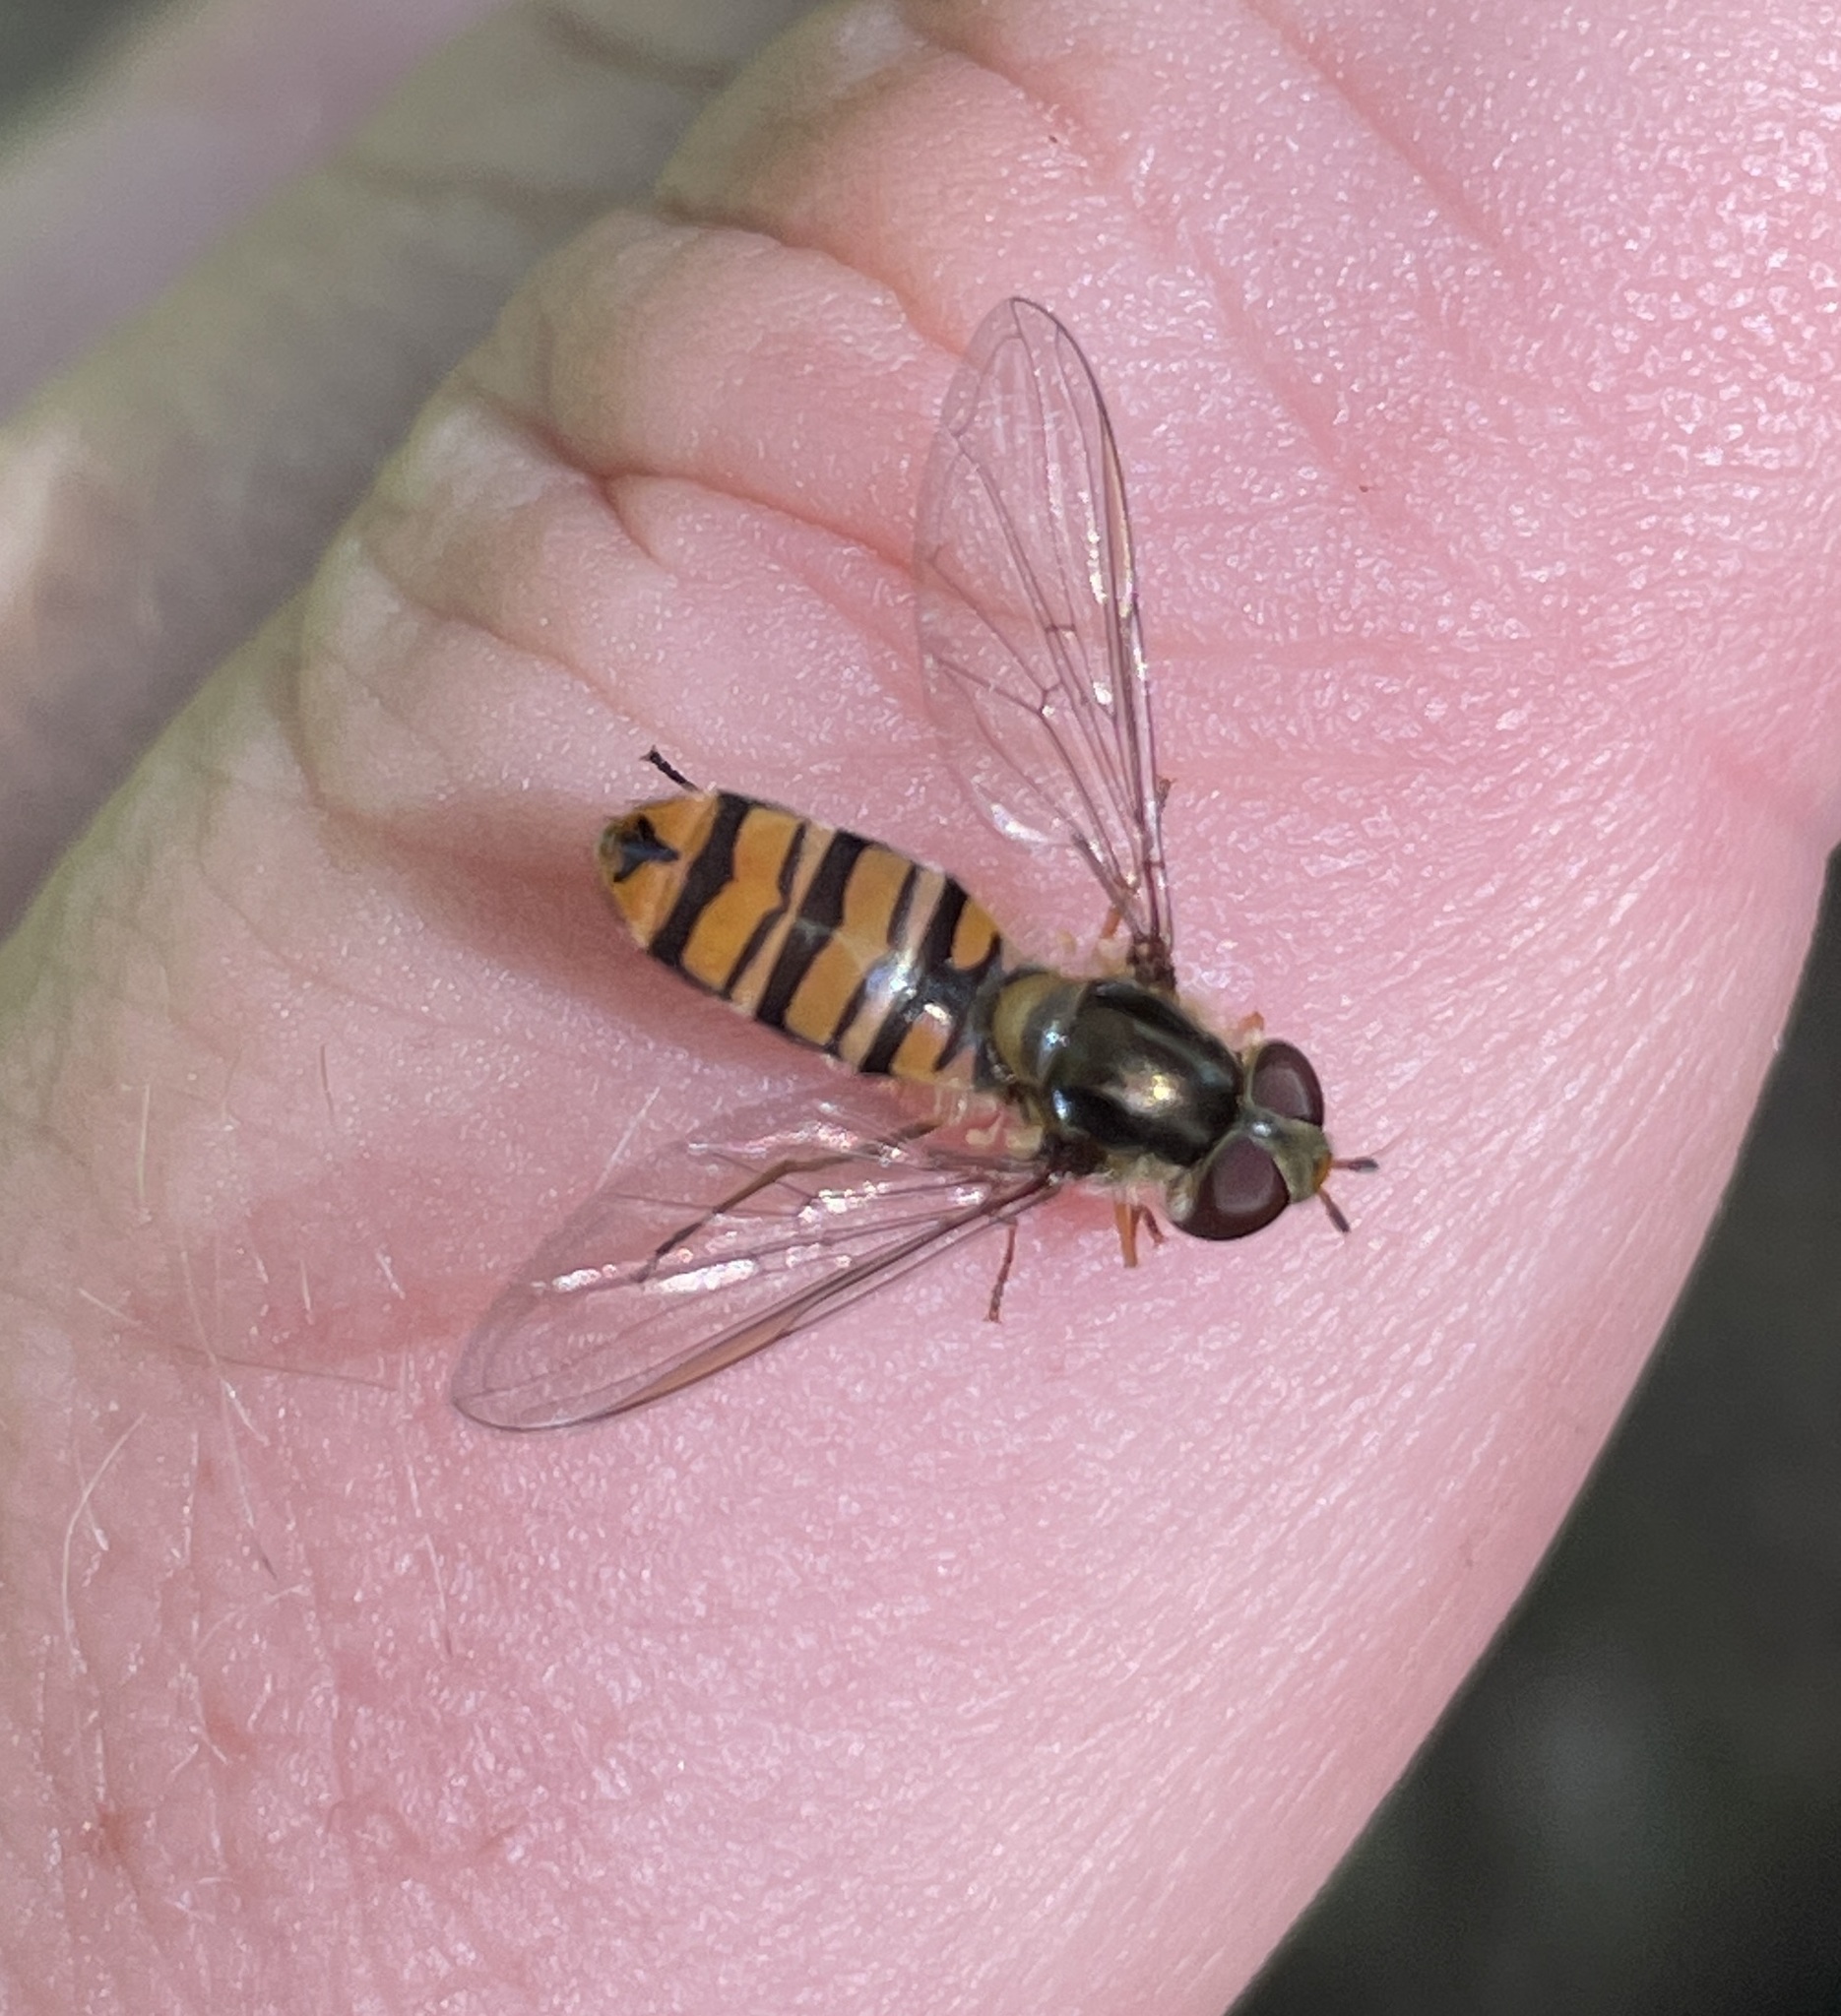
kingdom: Animalia
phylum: Arthropoda
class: Insecta
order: Diptera
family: Syrphidae
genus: Episyrphus
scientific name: Episyrphus balteatus
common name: Marmalade hoverfly
